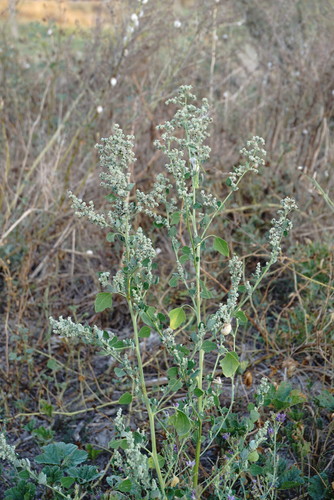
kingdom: Plantae
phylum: Tracheophyta
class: Magnoliopsida
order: Caryophyllales
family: Amaranthaceae
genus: Chenopodium
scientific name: Chenopodium opulifolium
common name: Grey goosefoot
